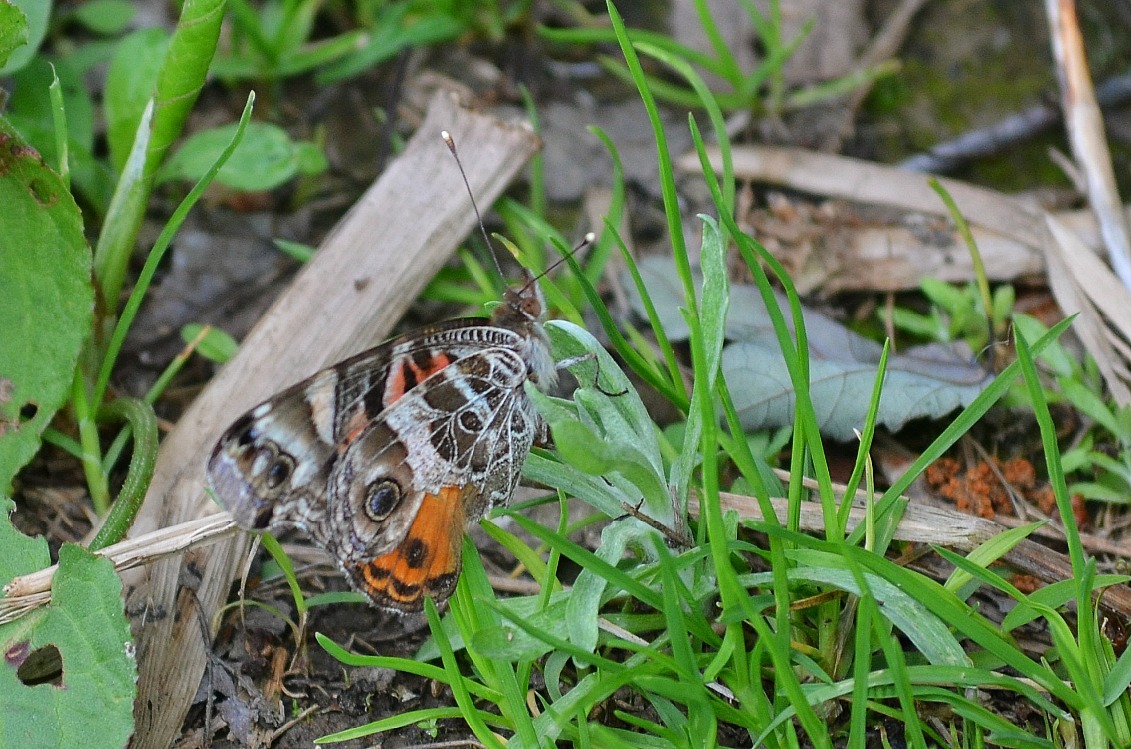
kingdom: Animalia
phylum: Arthropoda
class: Insecta
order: Lepidoptera
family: Nymphalidae
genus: Vanessa
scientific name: Vanessa virginiensis
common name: American lady
